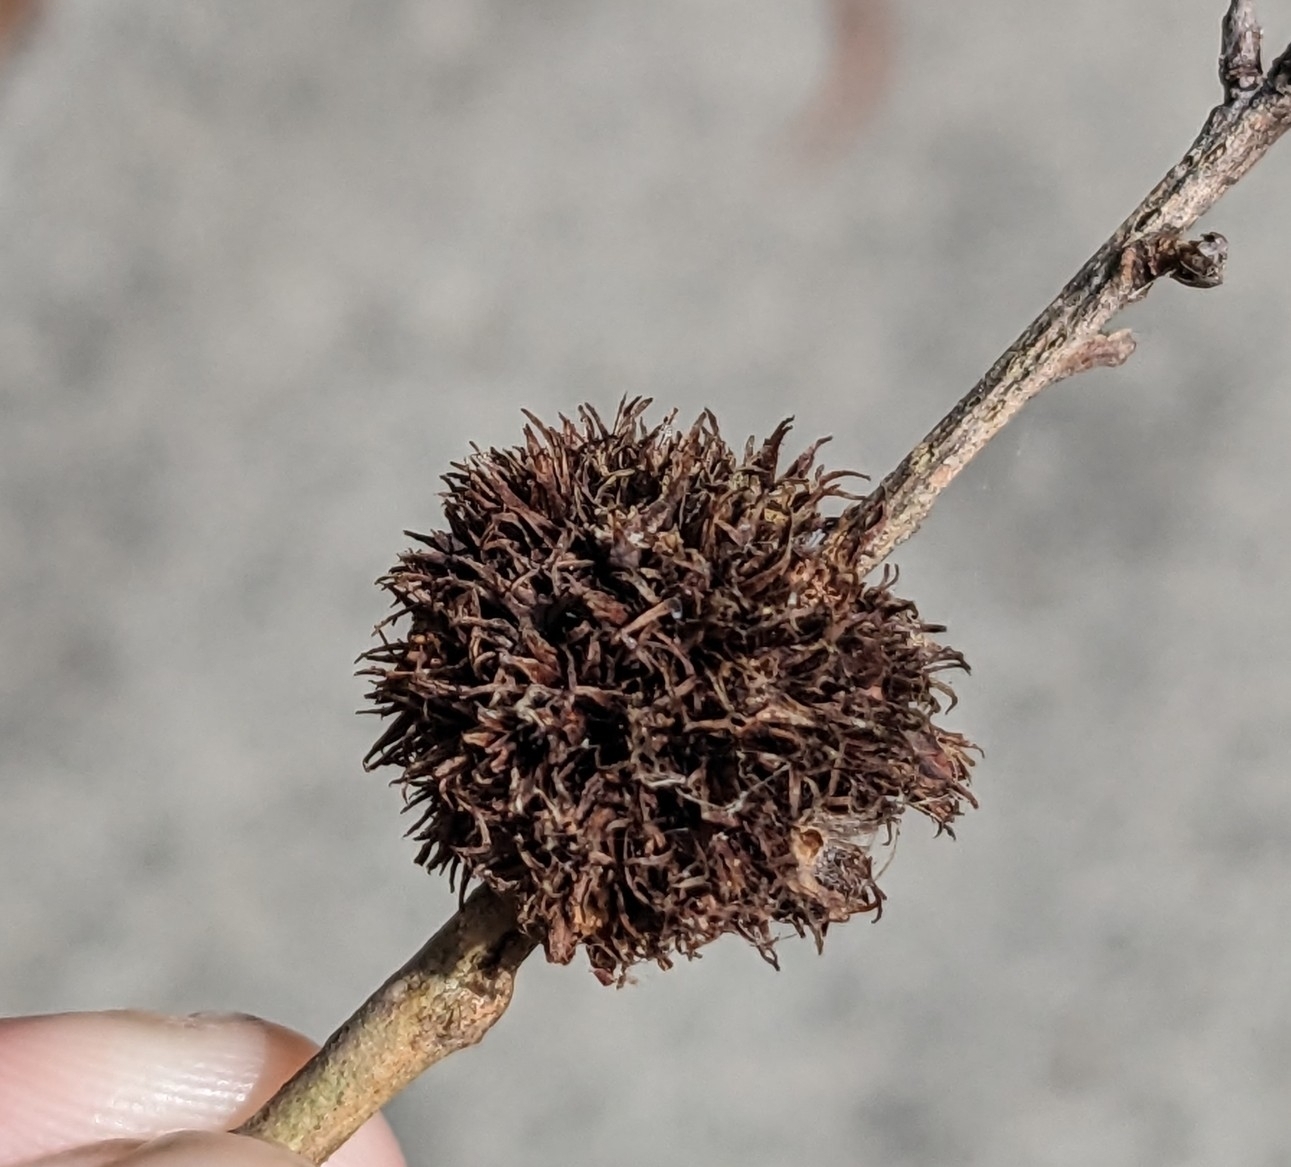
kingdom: Animalia
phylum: Arthropoda
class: Insecta
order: Hemiptera
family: Beesoniidae
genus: Beesonia
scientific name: Beesonia ferrugineus
